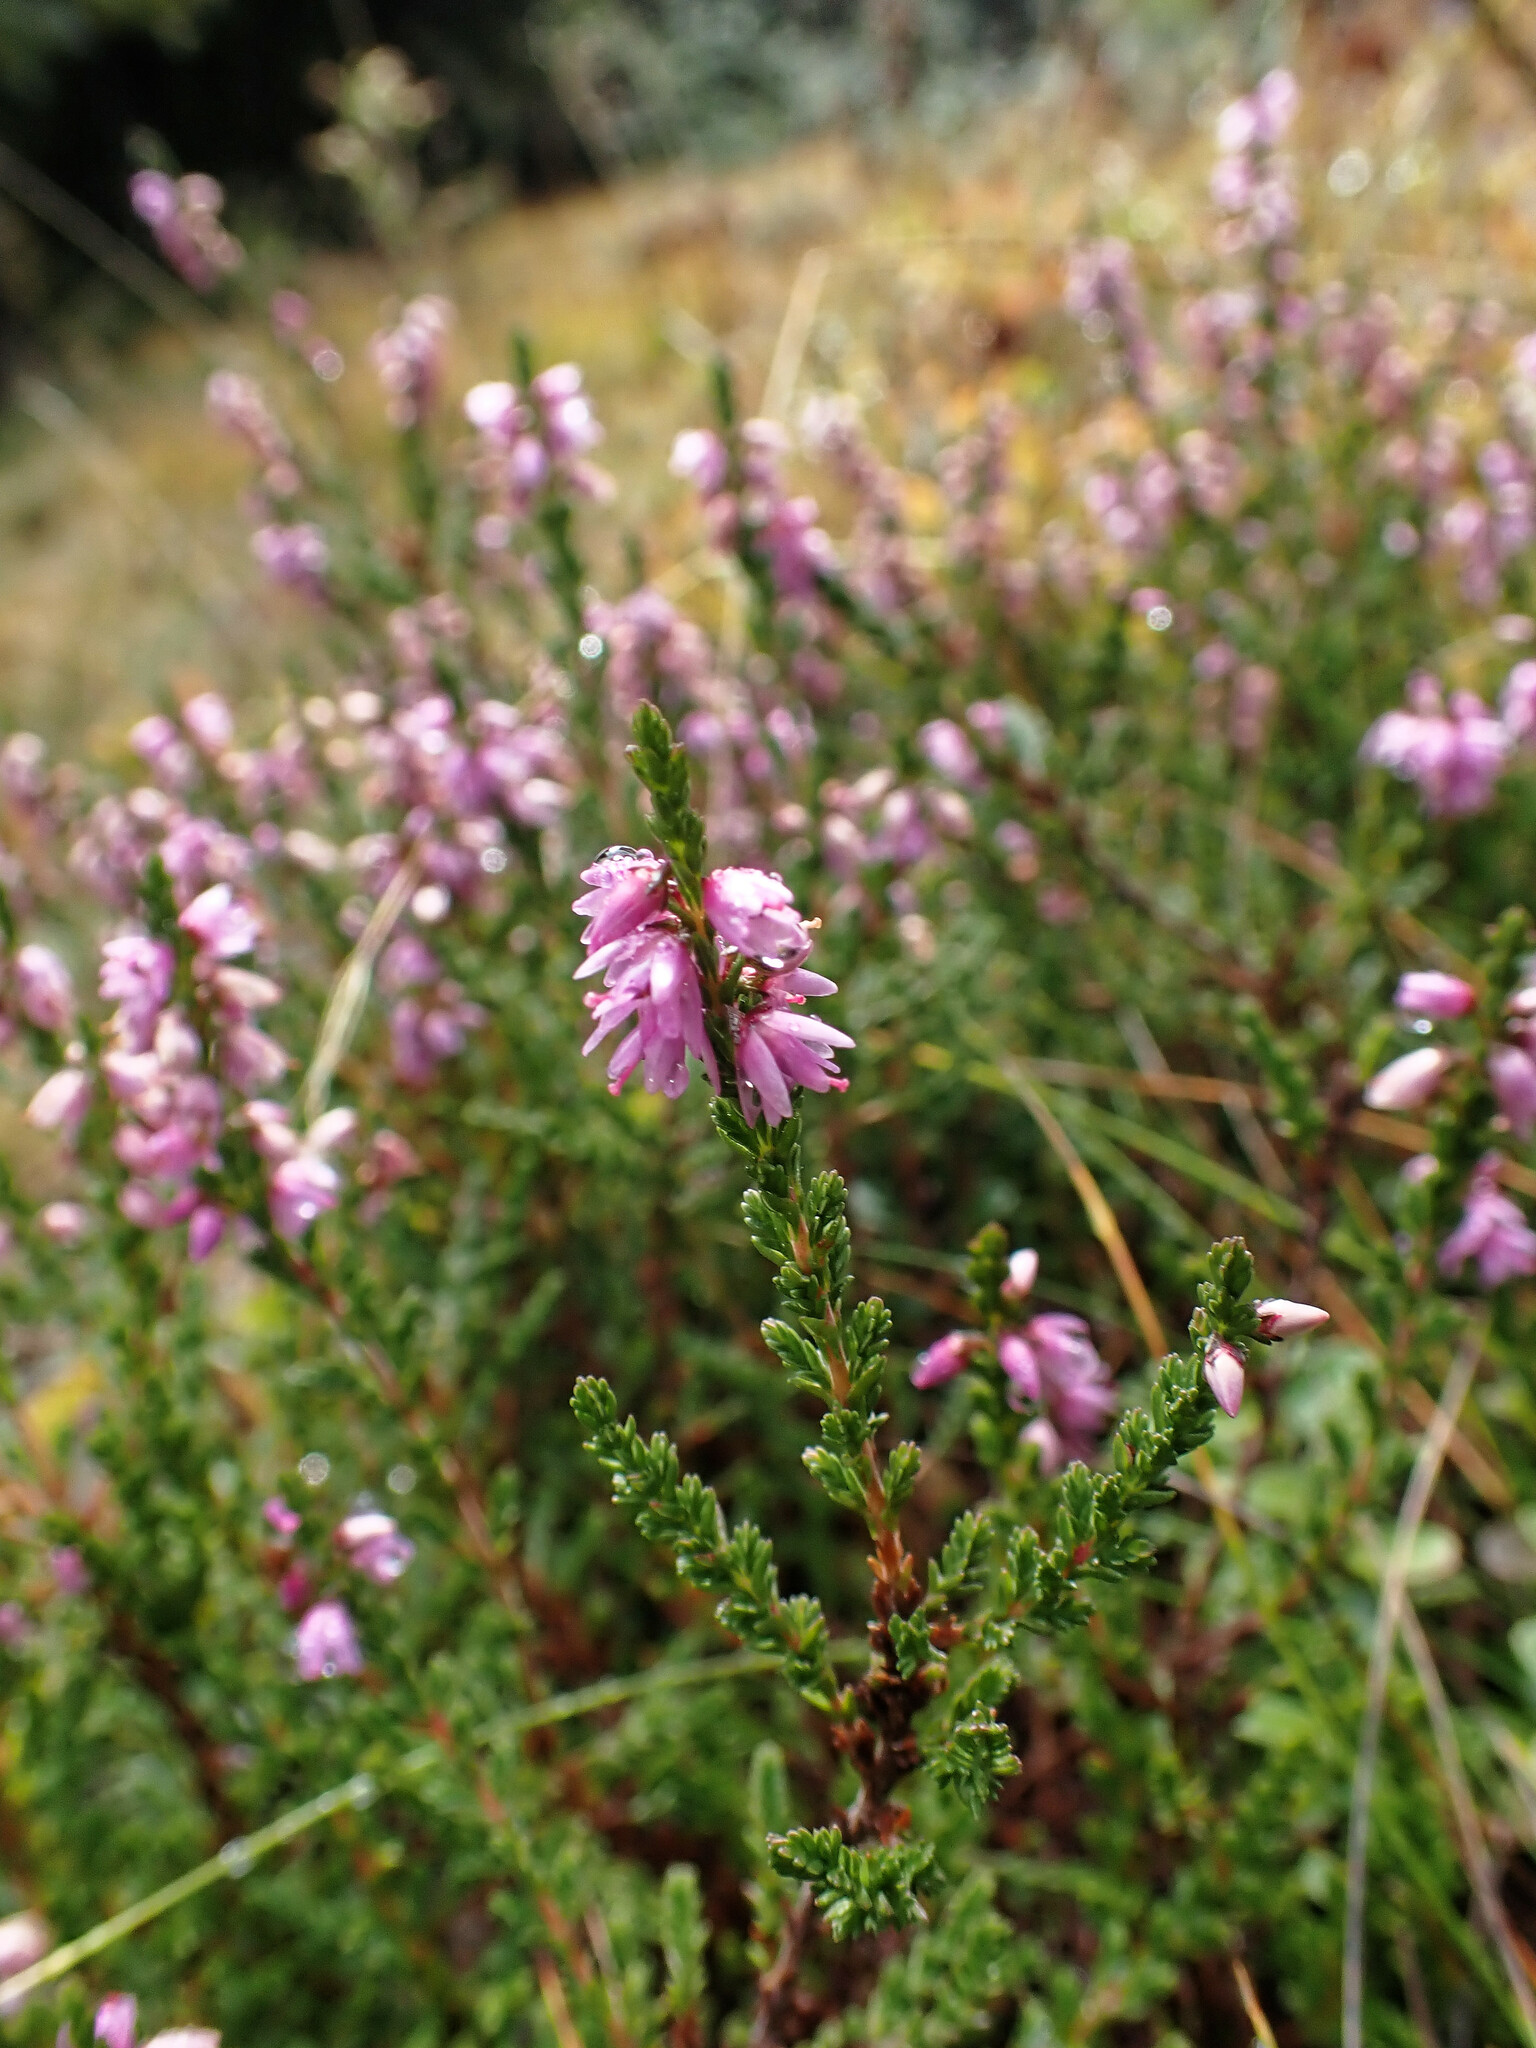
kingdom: Plantae
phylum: Tracheophyta
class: Magnoliopsida
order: Ericales
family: Ericaceae
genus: Calluna
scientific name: Calluna vulgaris
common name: Heather
